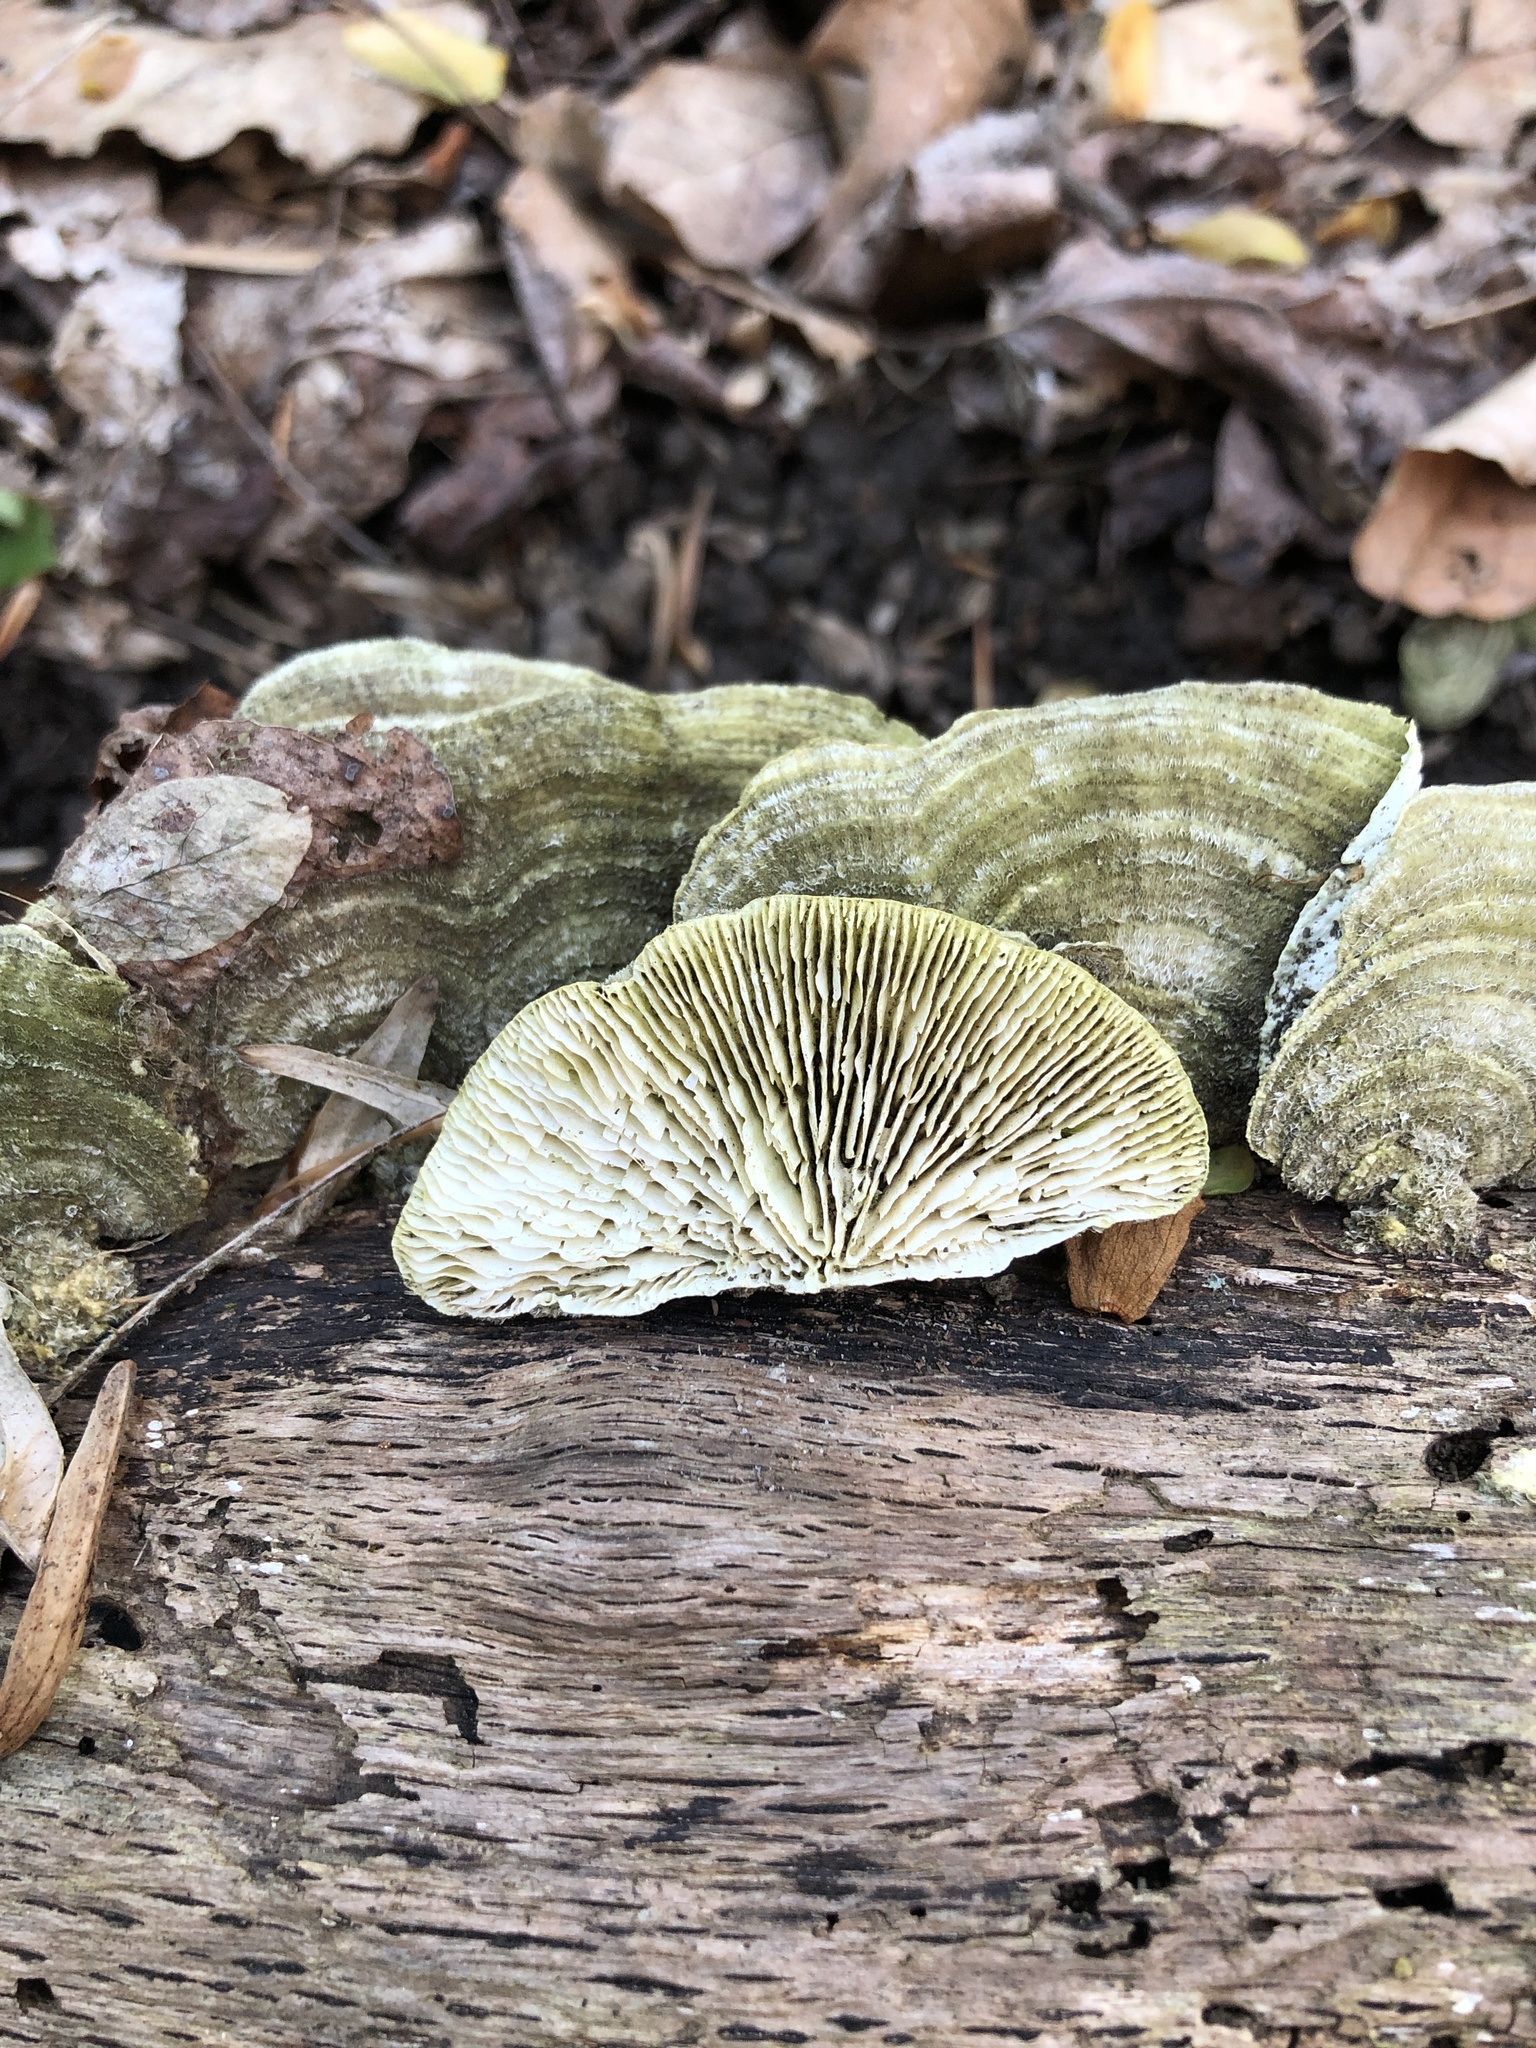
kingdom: Fungi
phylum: Basidiomycota
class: Agaricomycetes
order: Polyporales
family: Polyporaceae
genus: Lenzites
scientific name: Lenzites betulinus
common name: Birch mazegill
